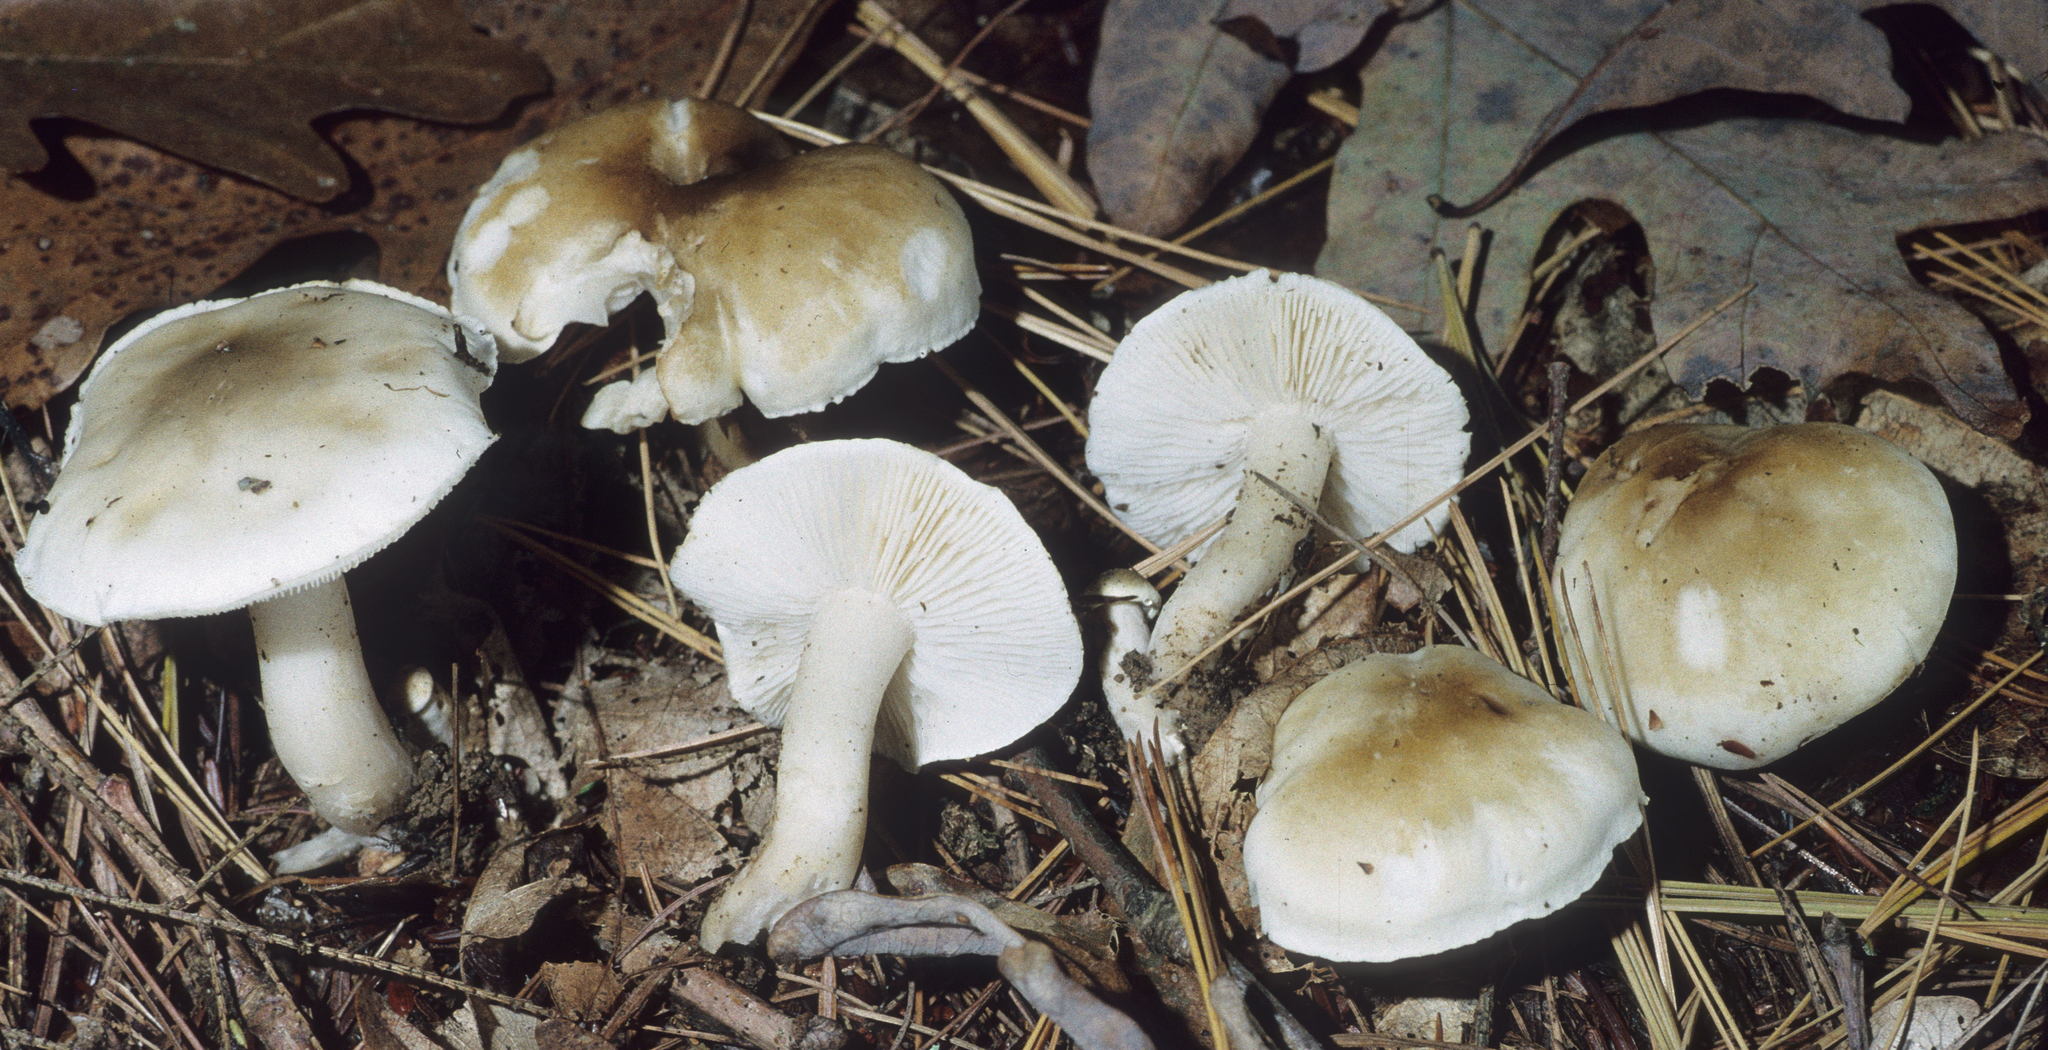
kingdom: Fungi
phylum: Basidiomycota
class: Agaricomycetes
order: Agaricales
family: Tricholomataceae
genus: Tricholoma
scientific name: Tricholoma saponaceum
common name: Soapy trich
